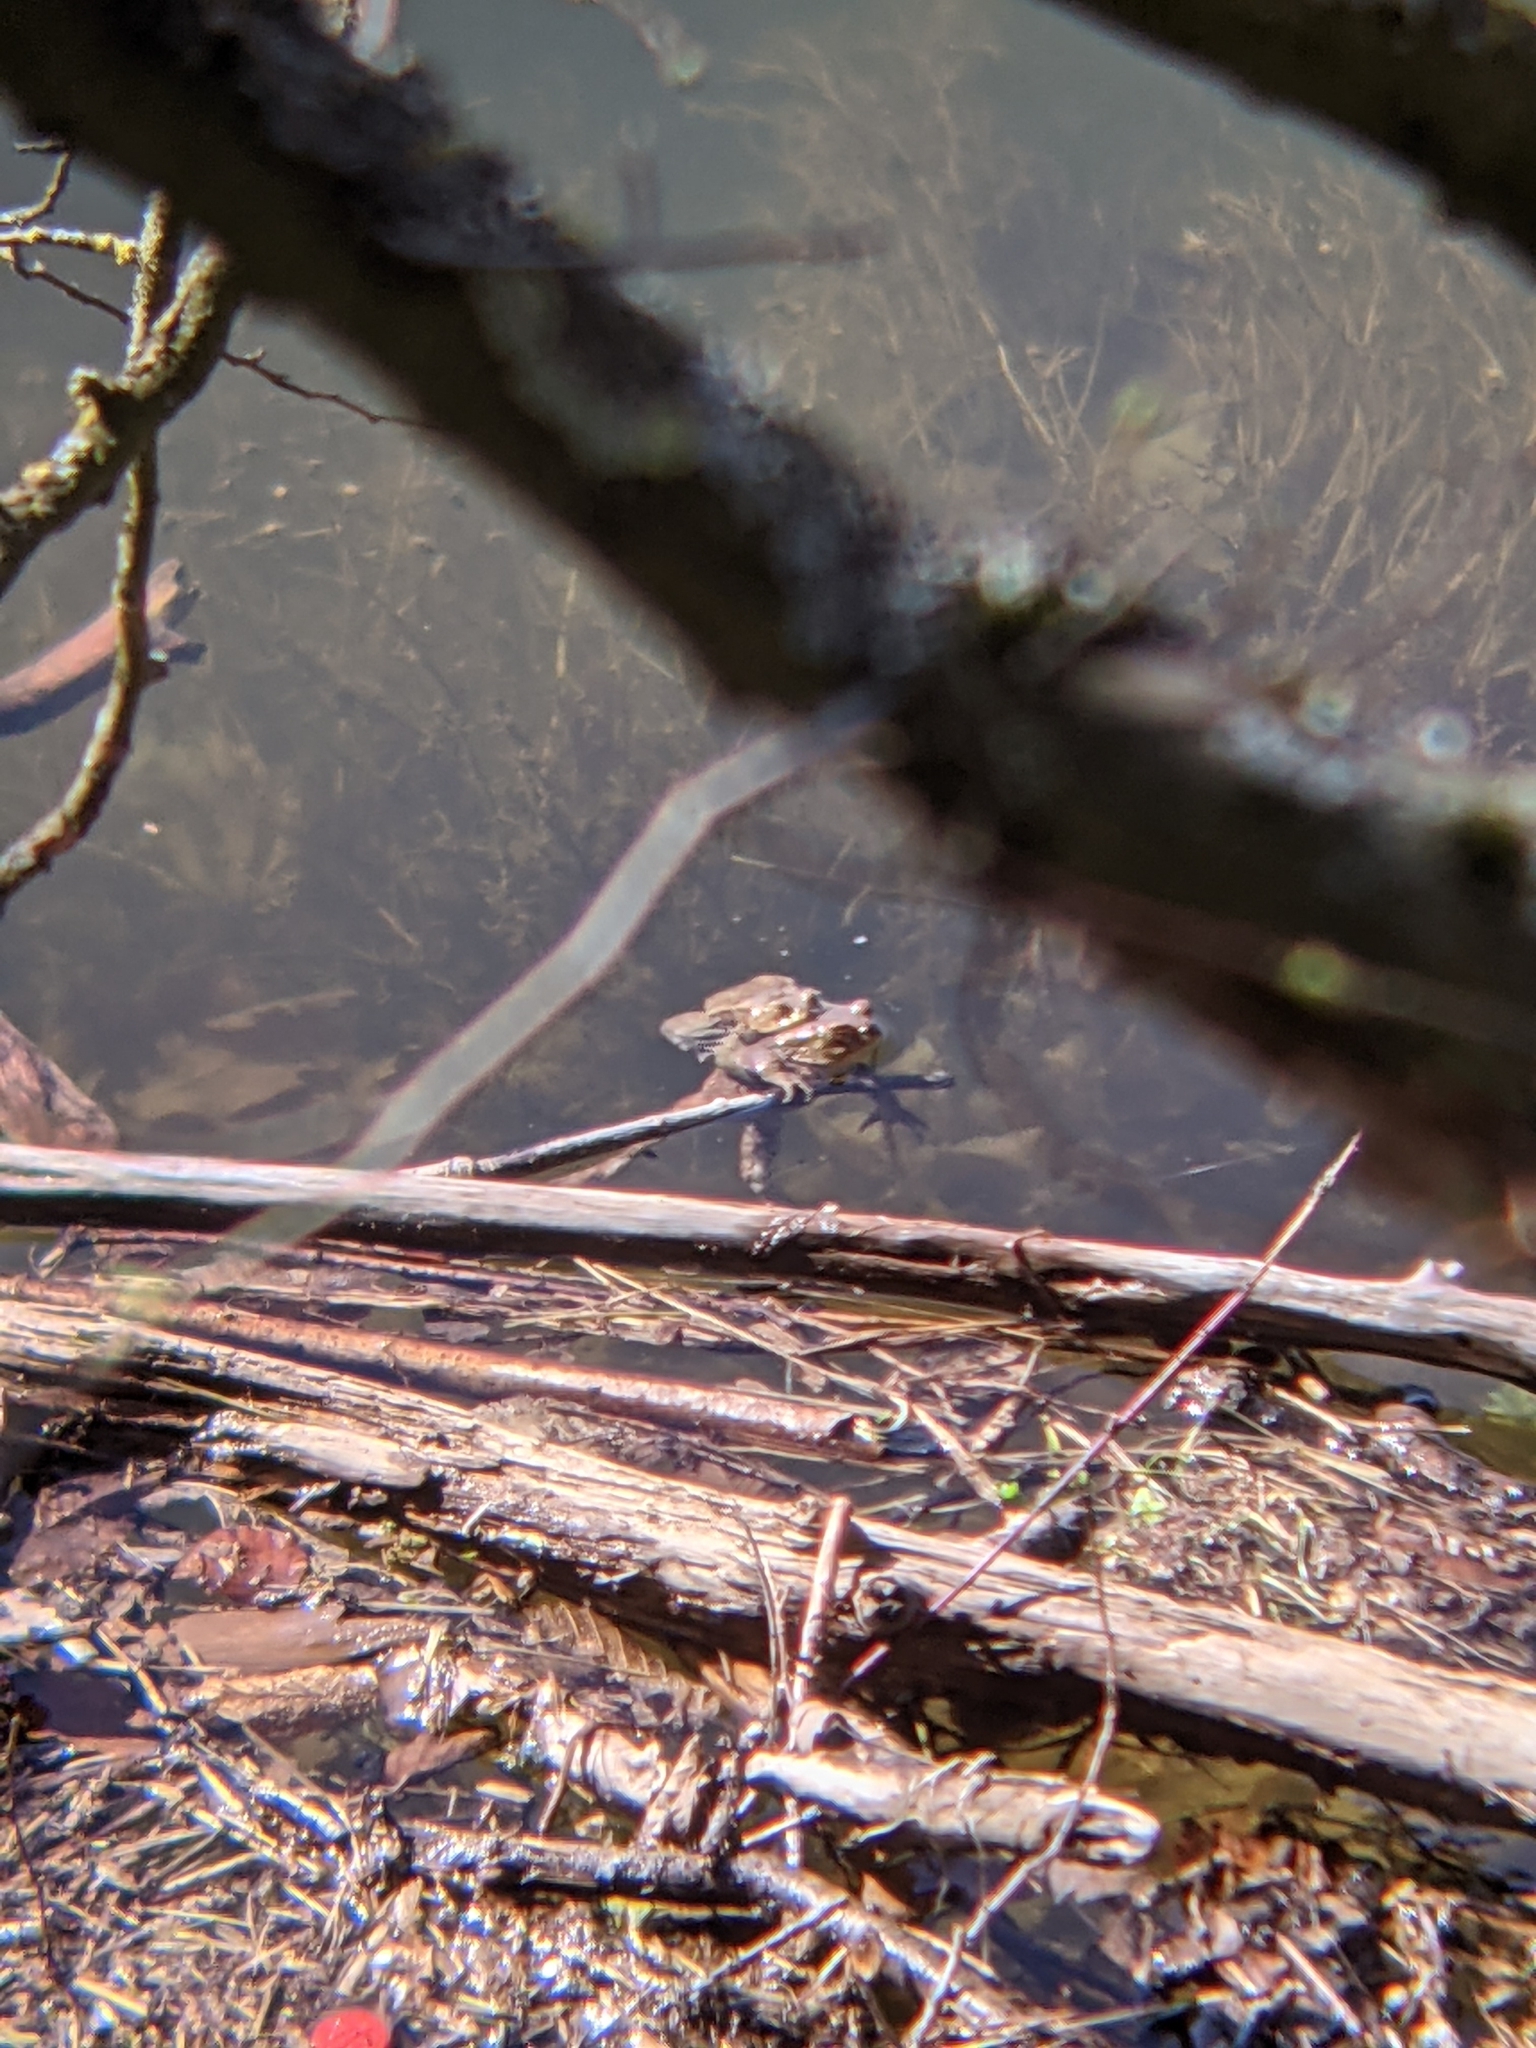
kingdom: Animalia
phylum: Chordata
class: Amphibia
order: Anura
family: Bufonidae
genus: Bufo
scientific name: Bufo bufo
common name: Common toad
